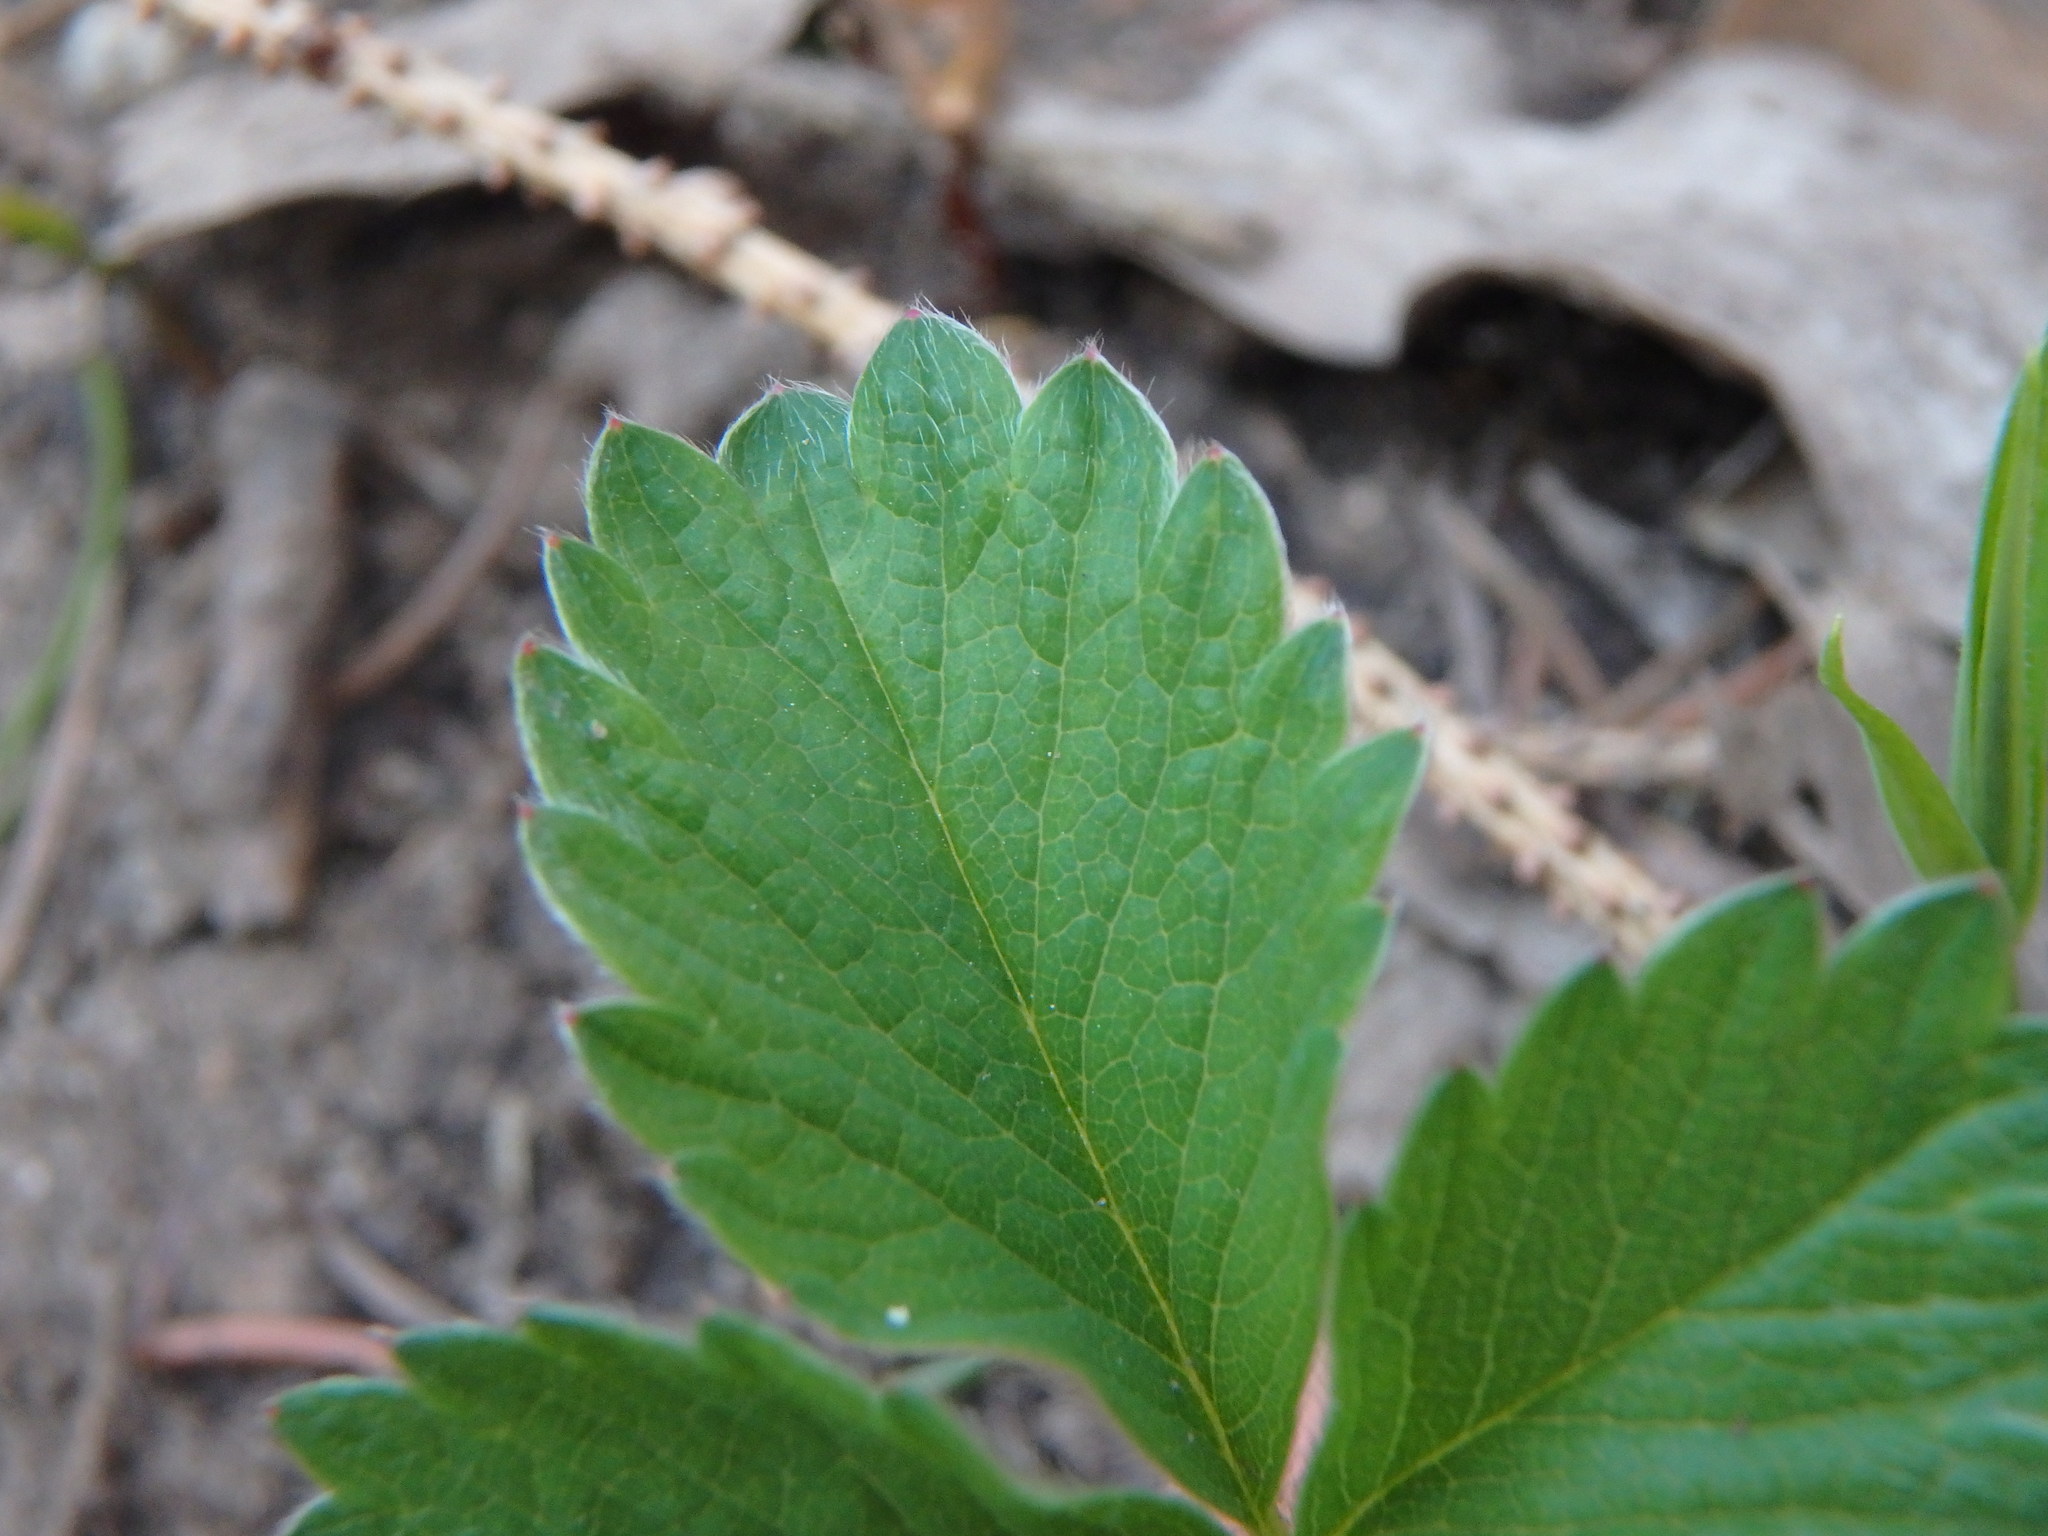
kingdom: Plantae
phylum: Tracheophyta
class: Magnoliopsida
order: Rosales
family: Rosaceae
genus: Potentilla
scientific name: Potentilla micrantha
